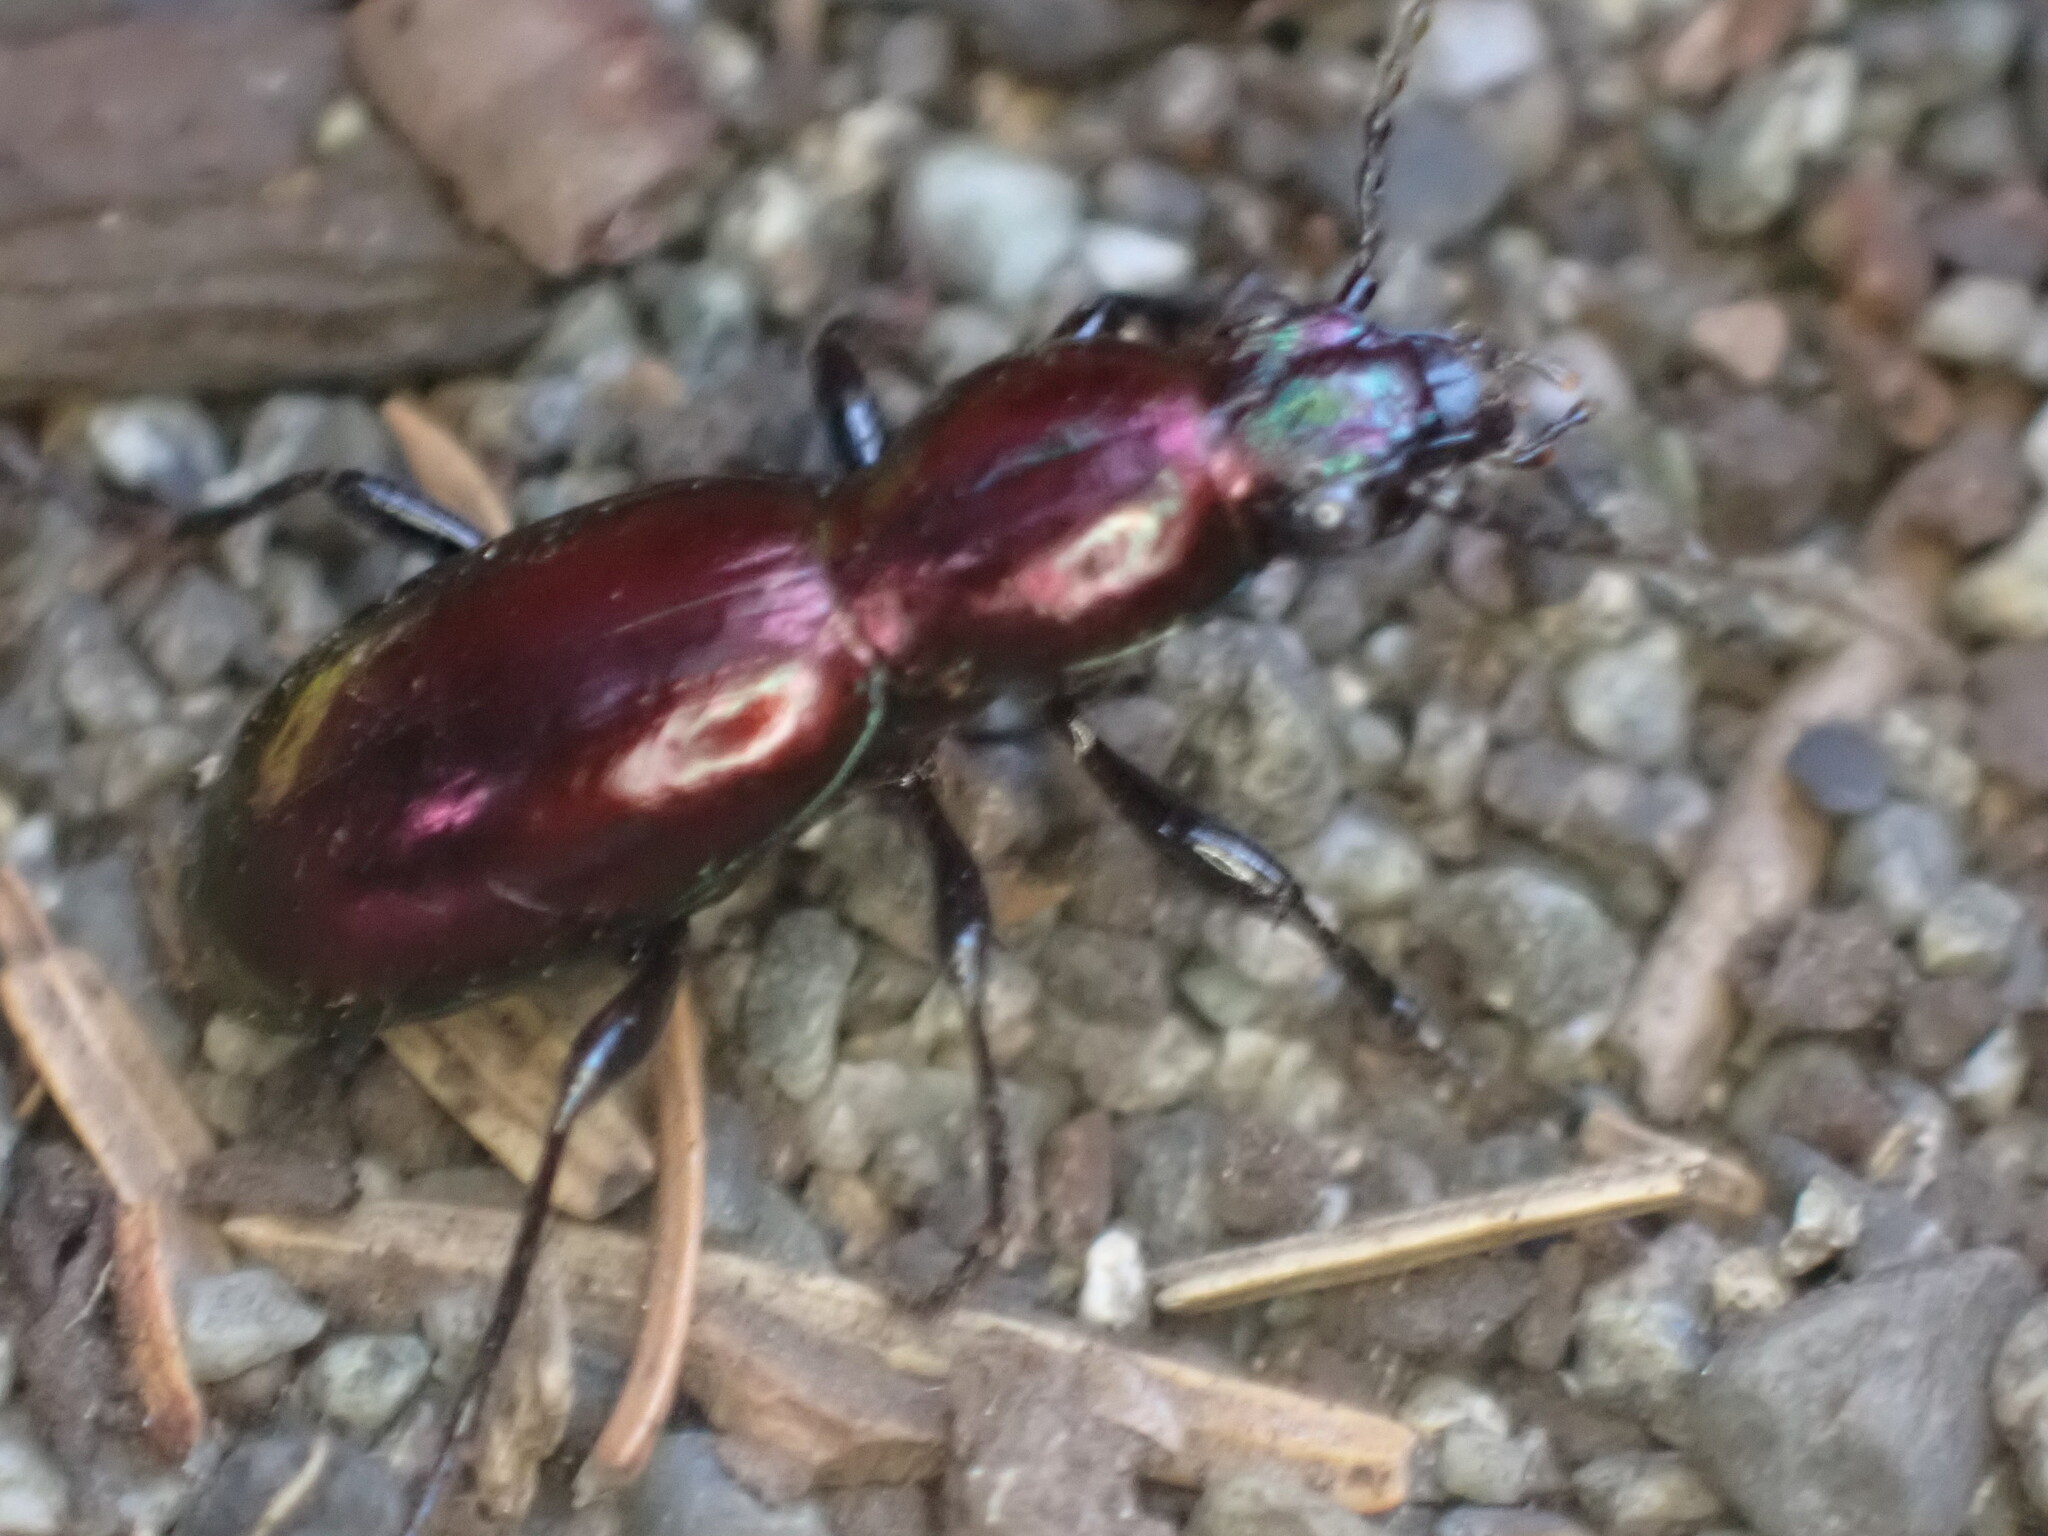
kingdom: Animalia
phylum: Arthropoda
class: Insecta
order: Coleoptera
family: Carabidae
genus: Zacotus
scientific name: Zacotus matthewsii
